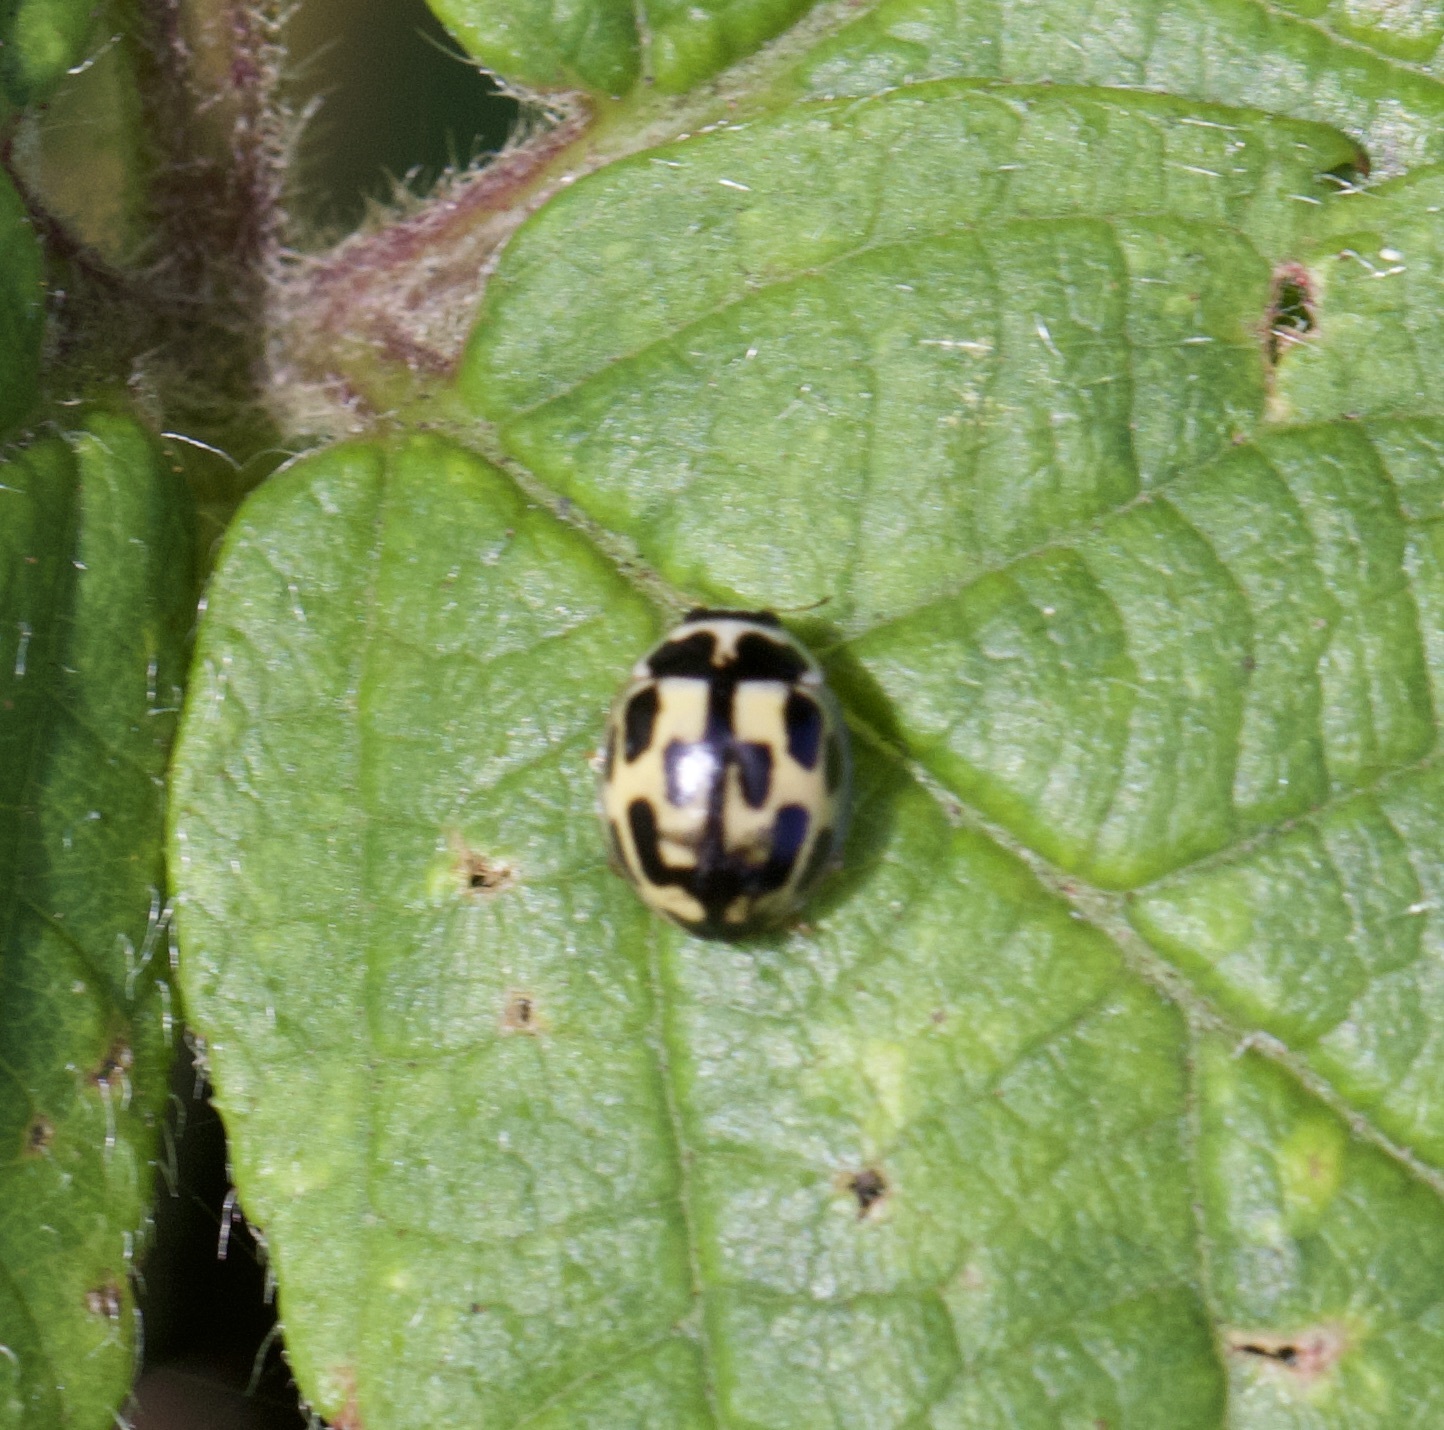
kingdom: Animalia
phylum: Arthropoda
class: Insecta
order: Coleoptera
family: Coccinellidae
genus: Propylaea
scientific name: Propylaea quatuordecimpunctata
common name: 14-spotted ladybird beetle
